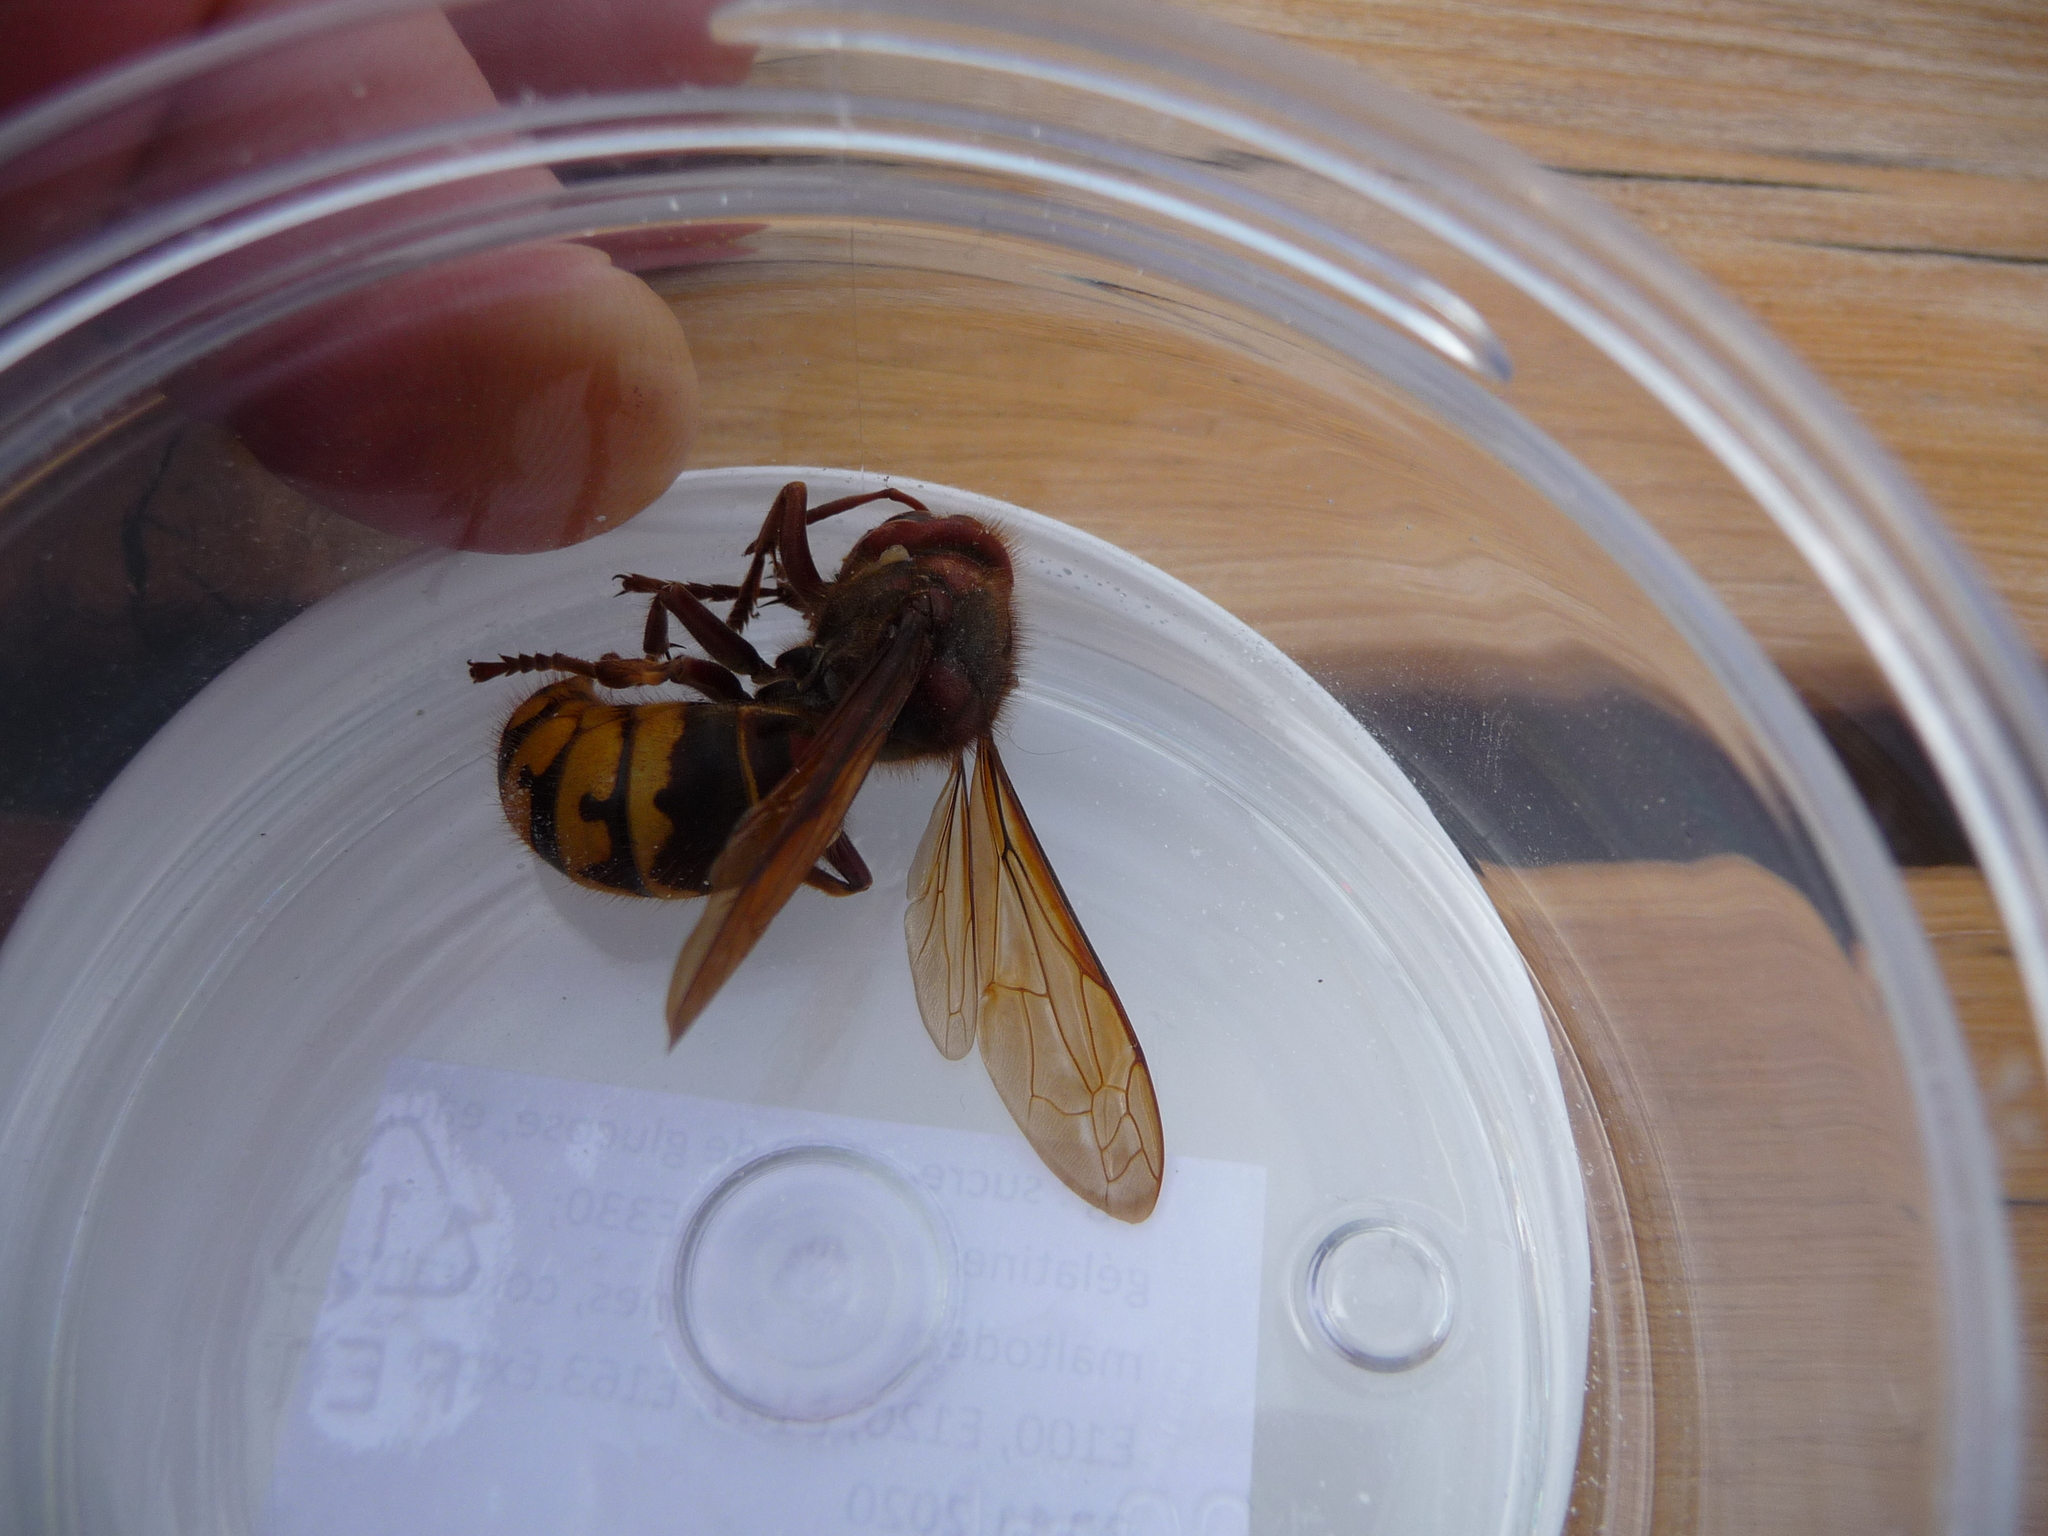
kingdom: Animalia
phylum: Arthropoda
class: Insecta
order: Hymenoptera
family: Vespidae
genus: Vespa
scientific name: Vespa crabro
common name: Hornet
